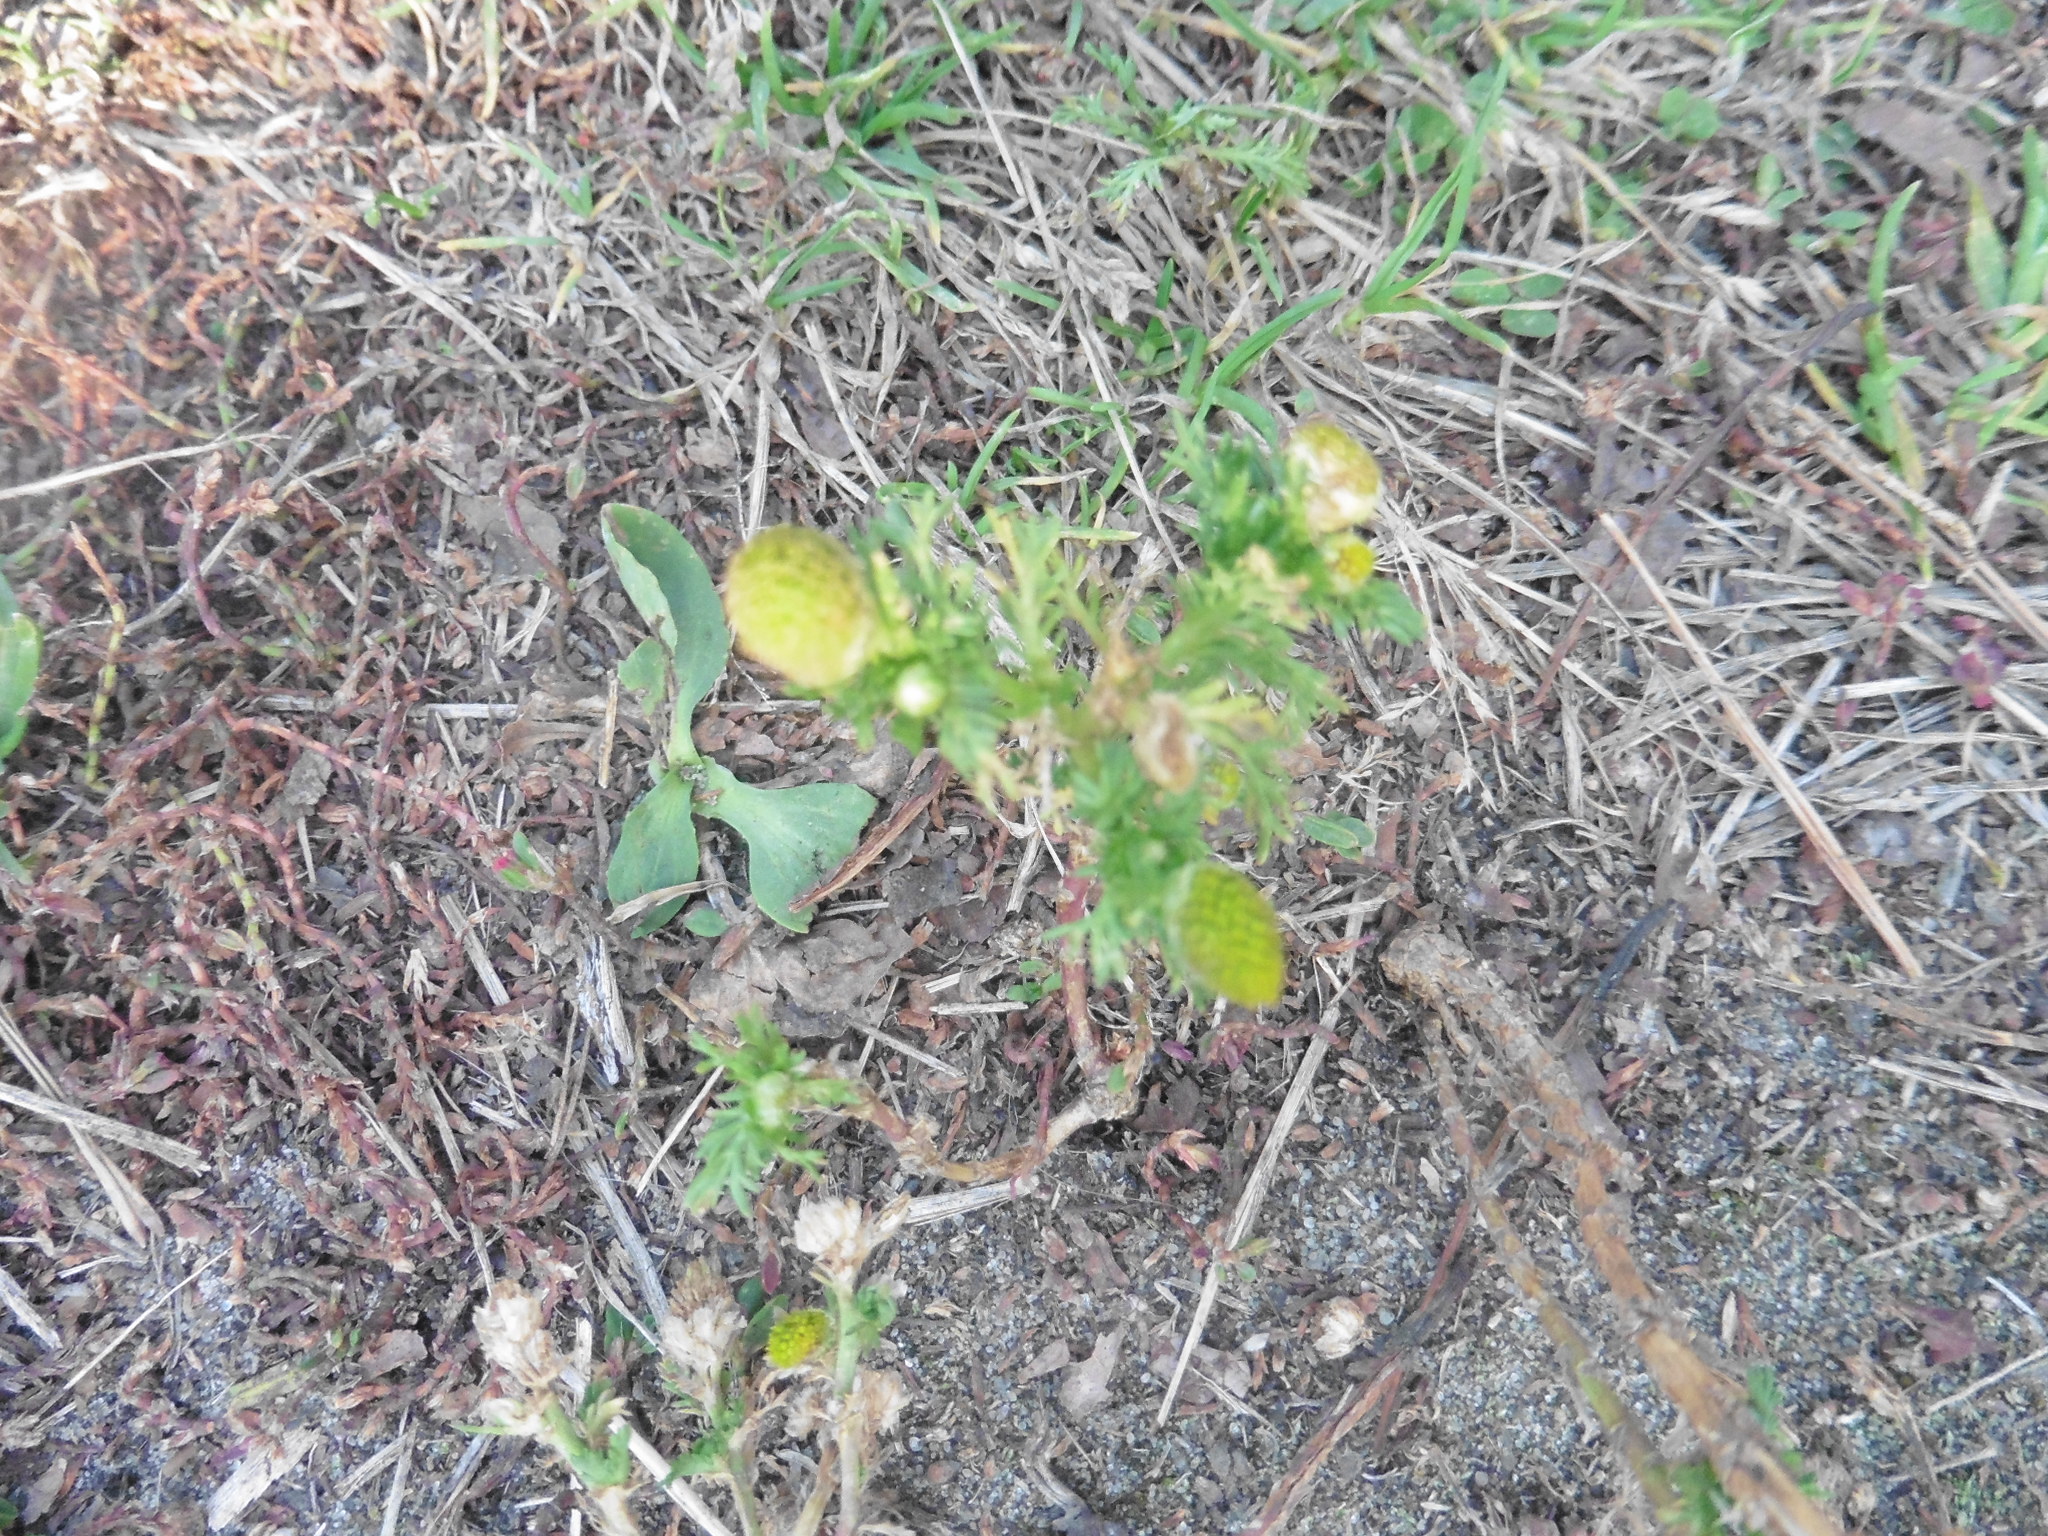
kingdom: Plantae
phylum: Tracheophyta
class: Magnoliopsida
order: Asterales
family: Asteraceae
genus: Matricaria
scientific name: Matricaria discoidea
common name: Disc mayweed
